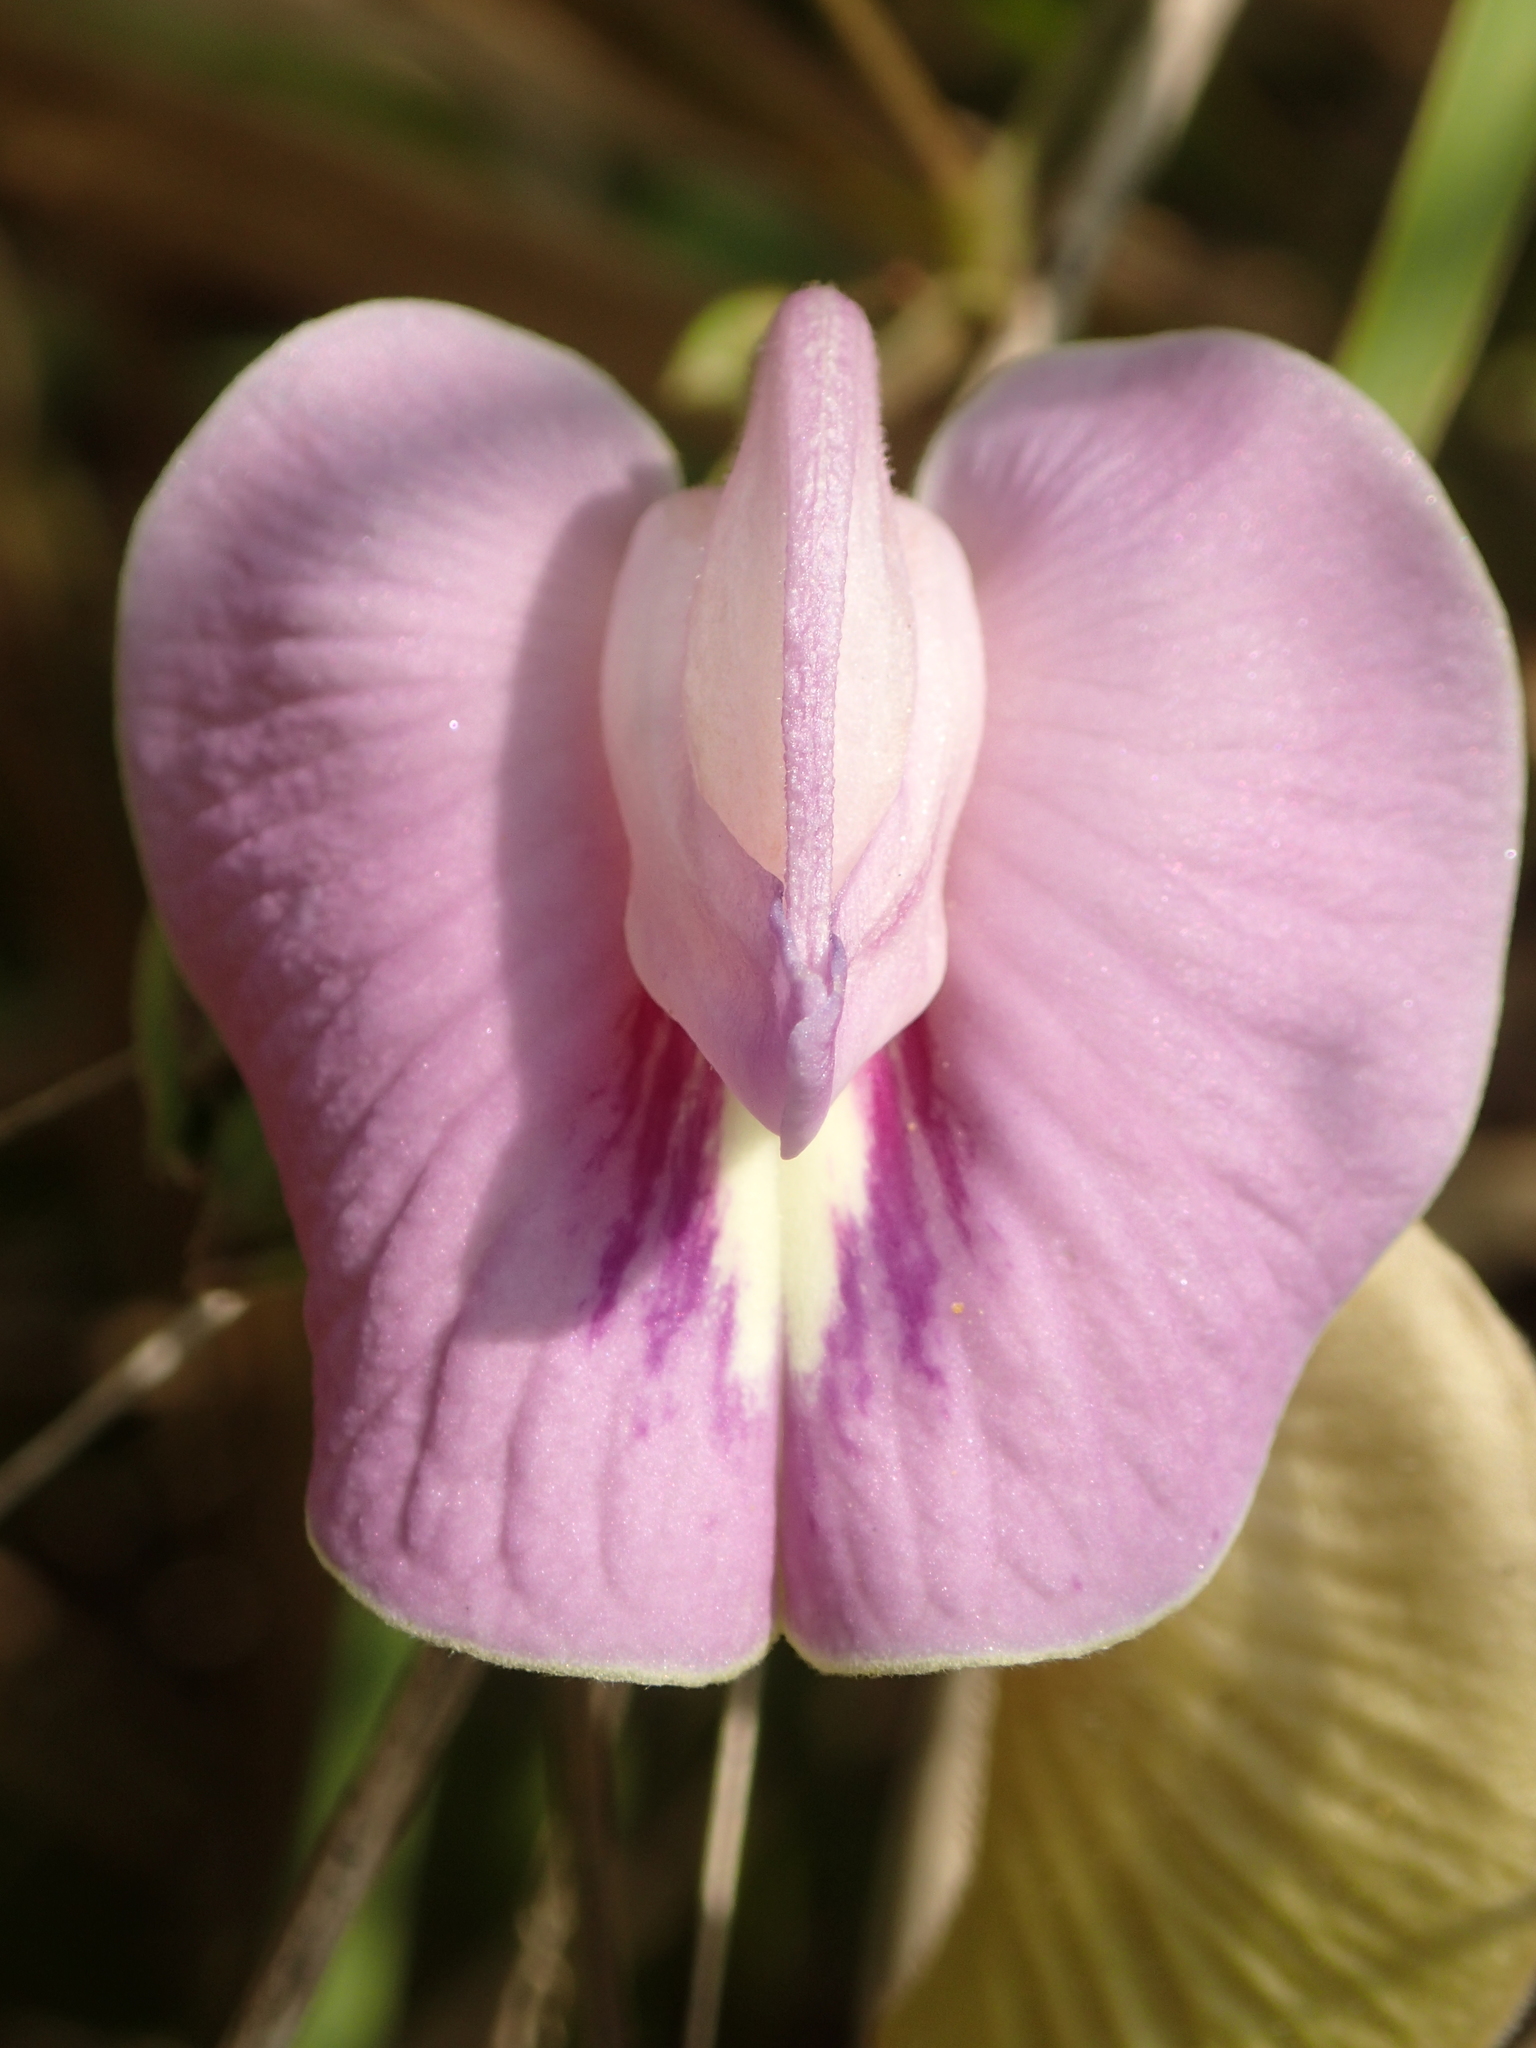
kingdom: Plantae
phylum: Tracheophyta
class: Magnoliopsida
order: Fabales
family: Fabaceae
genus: Centrosema
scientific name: Centrosema pubescens
